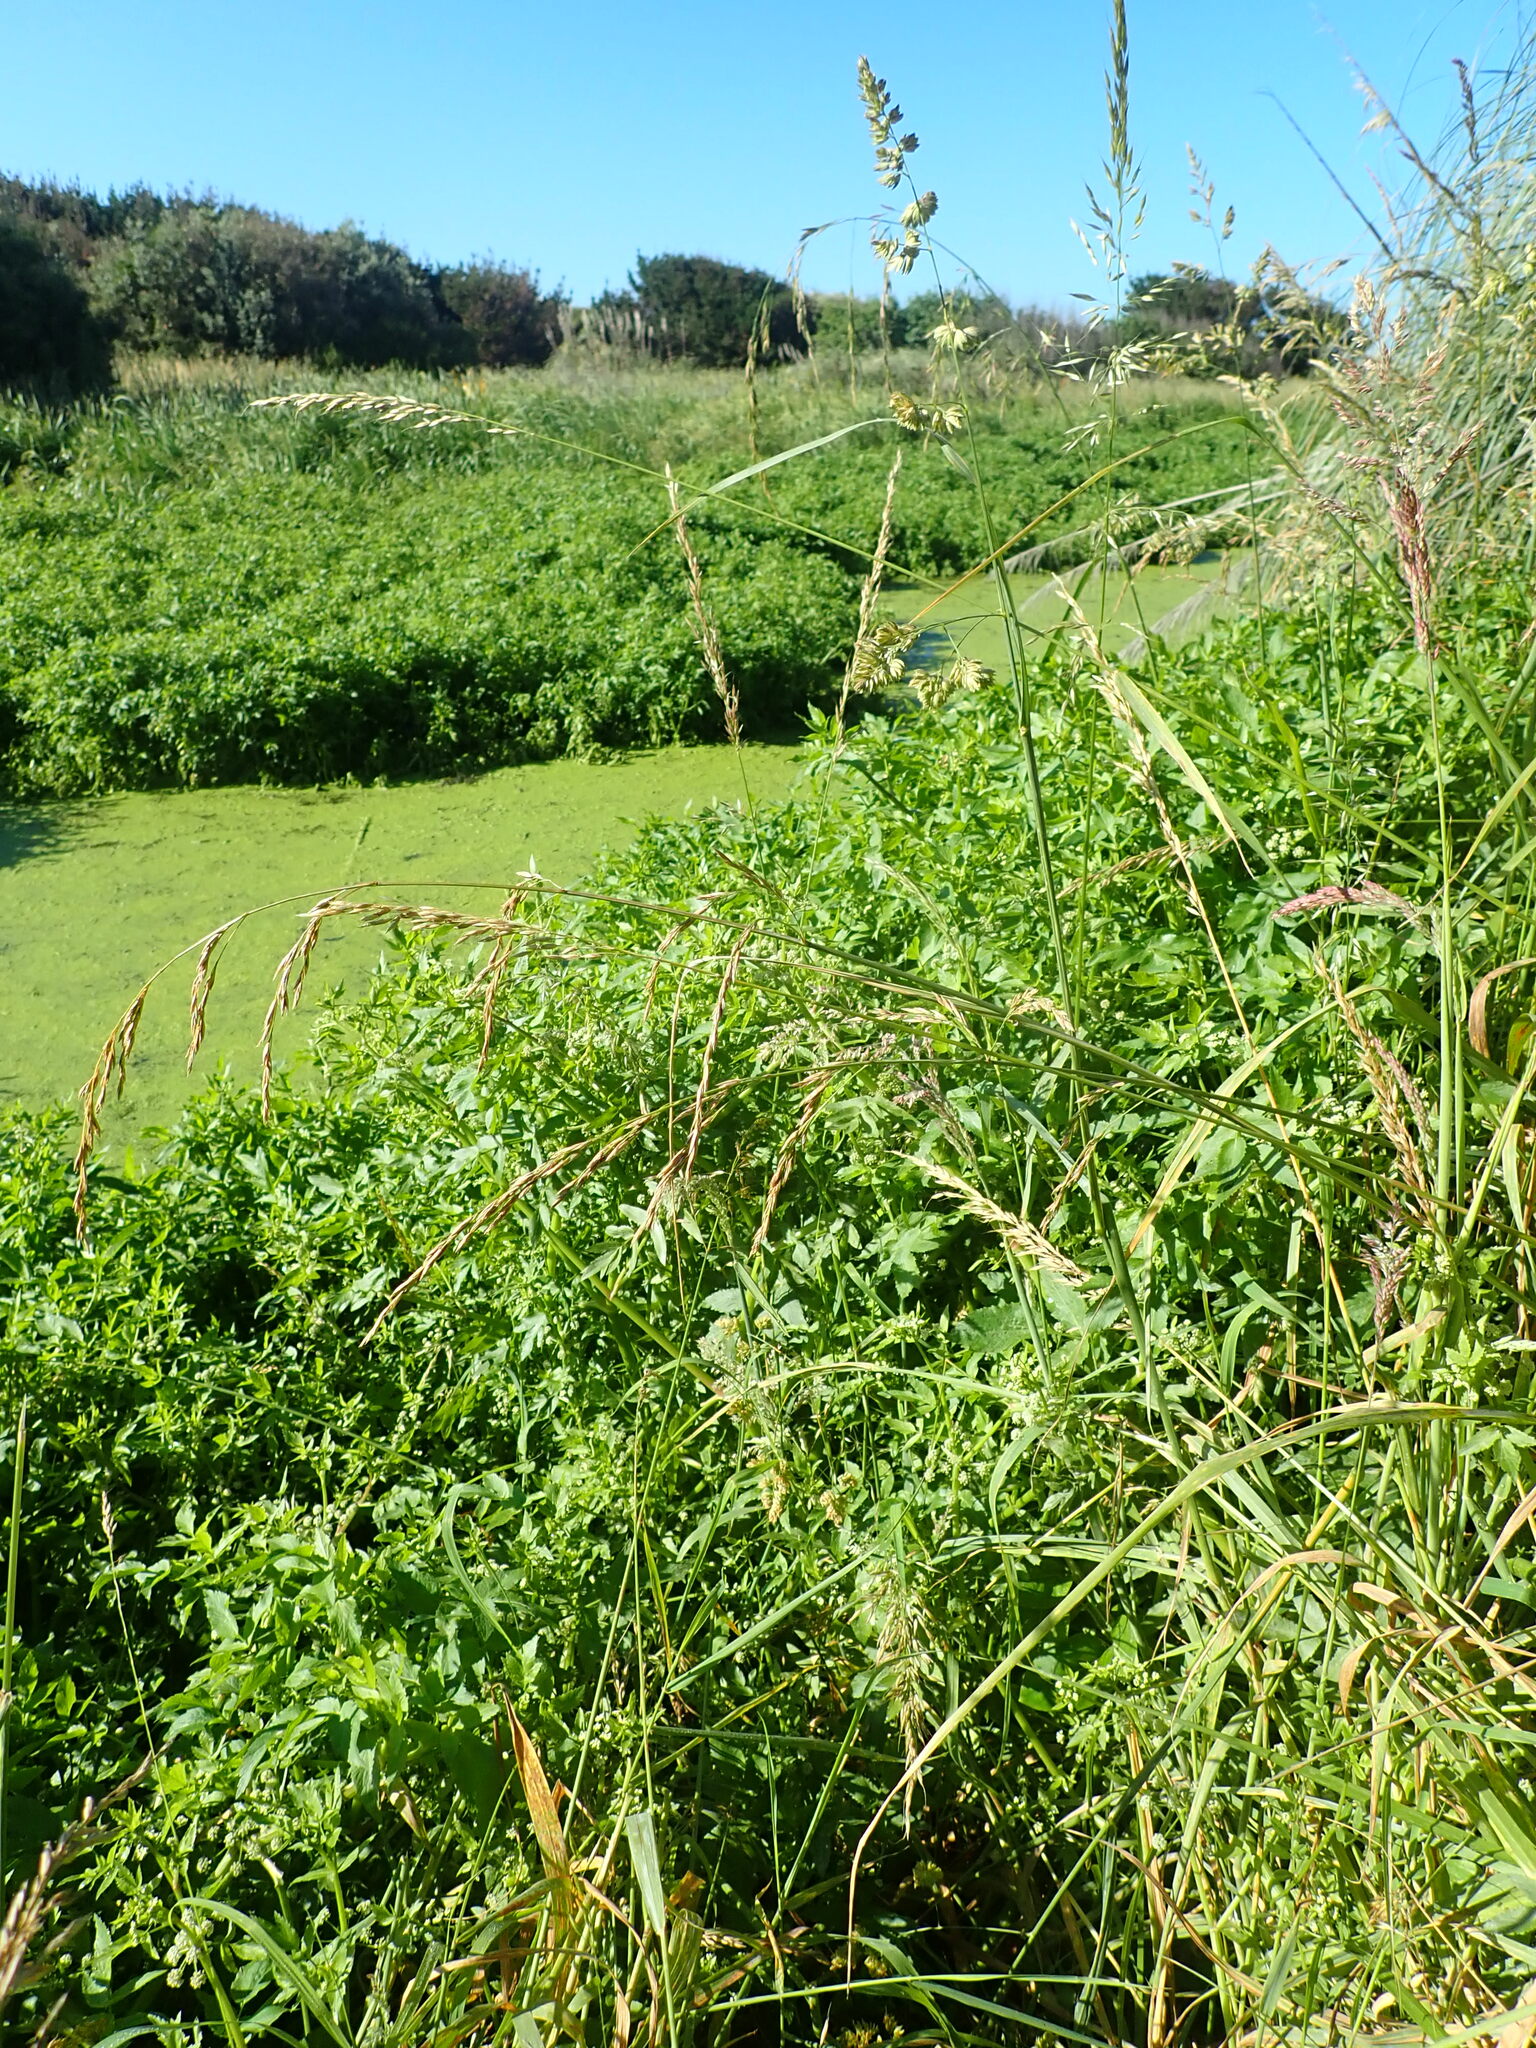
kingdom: Plantae
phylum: Tracheophyta
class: Magnoliopsida
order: Apiales
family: Apiaceae
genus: Helosciadium
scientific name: Helosciadium nodiflorum
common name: Fool's-watercress
